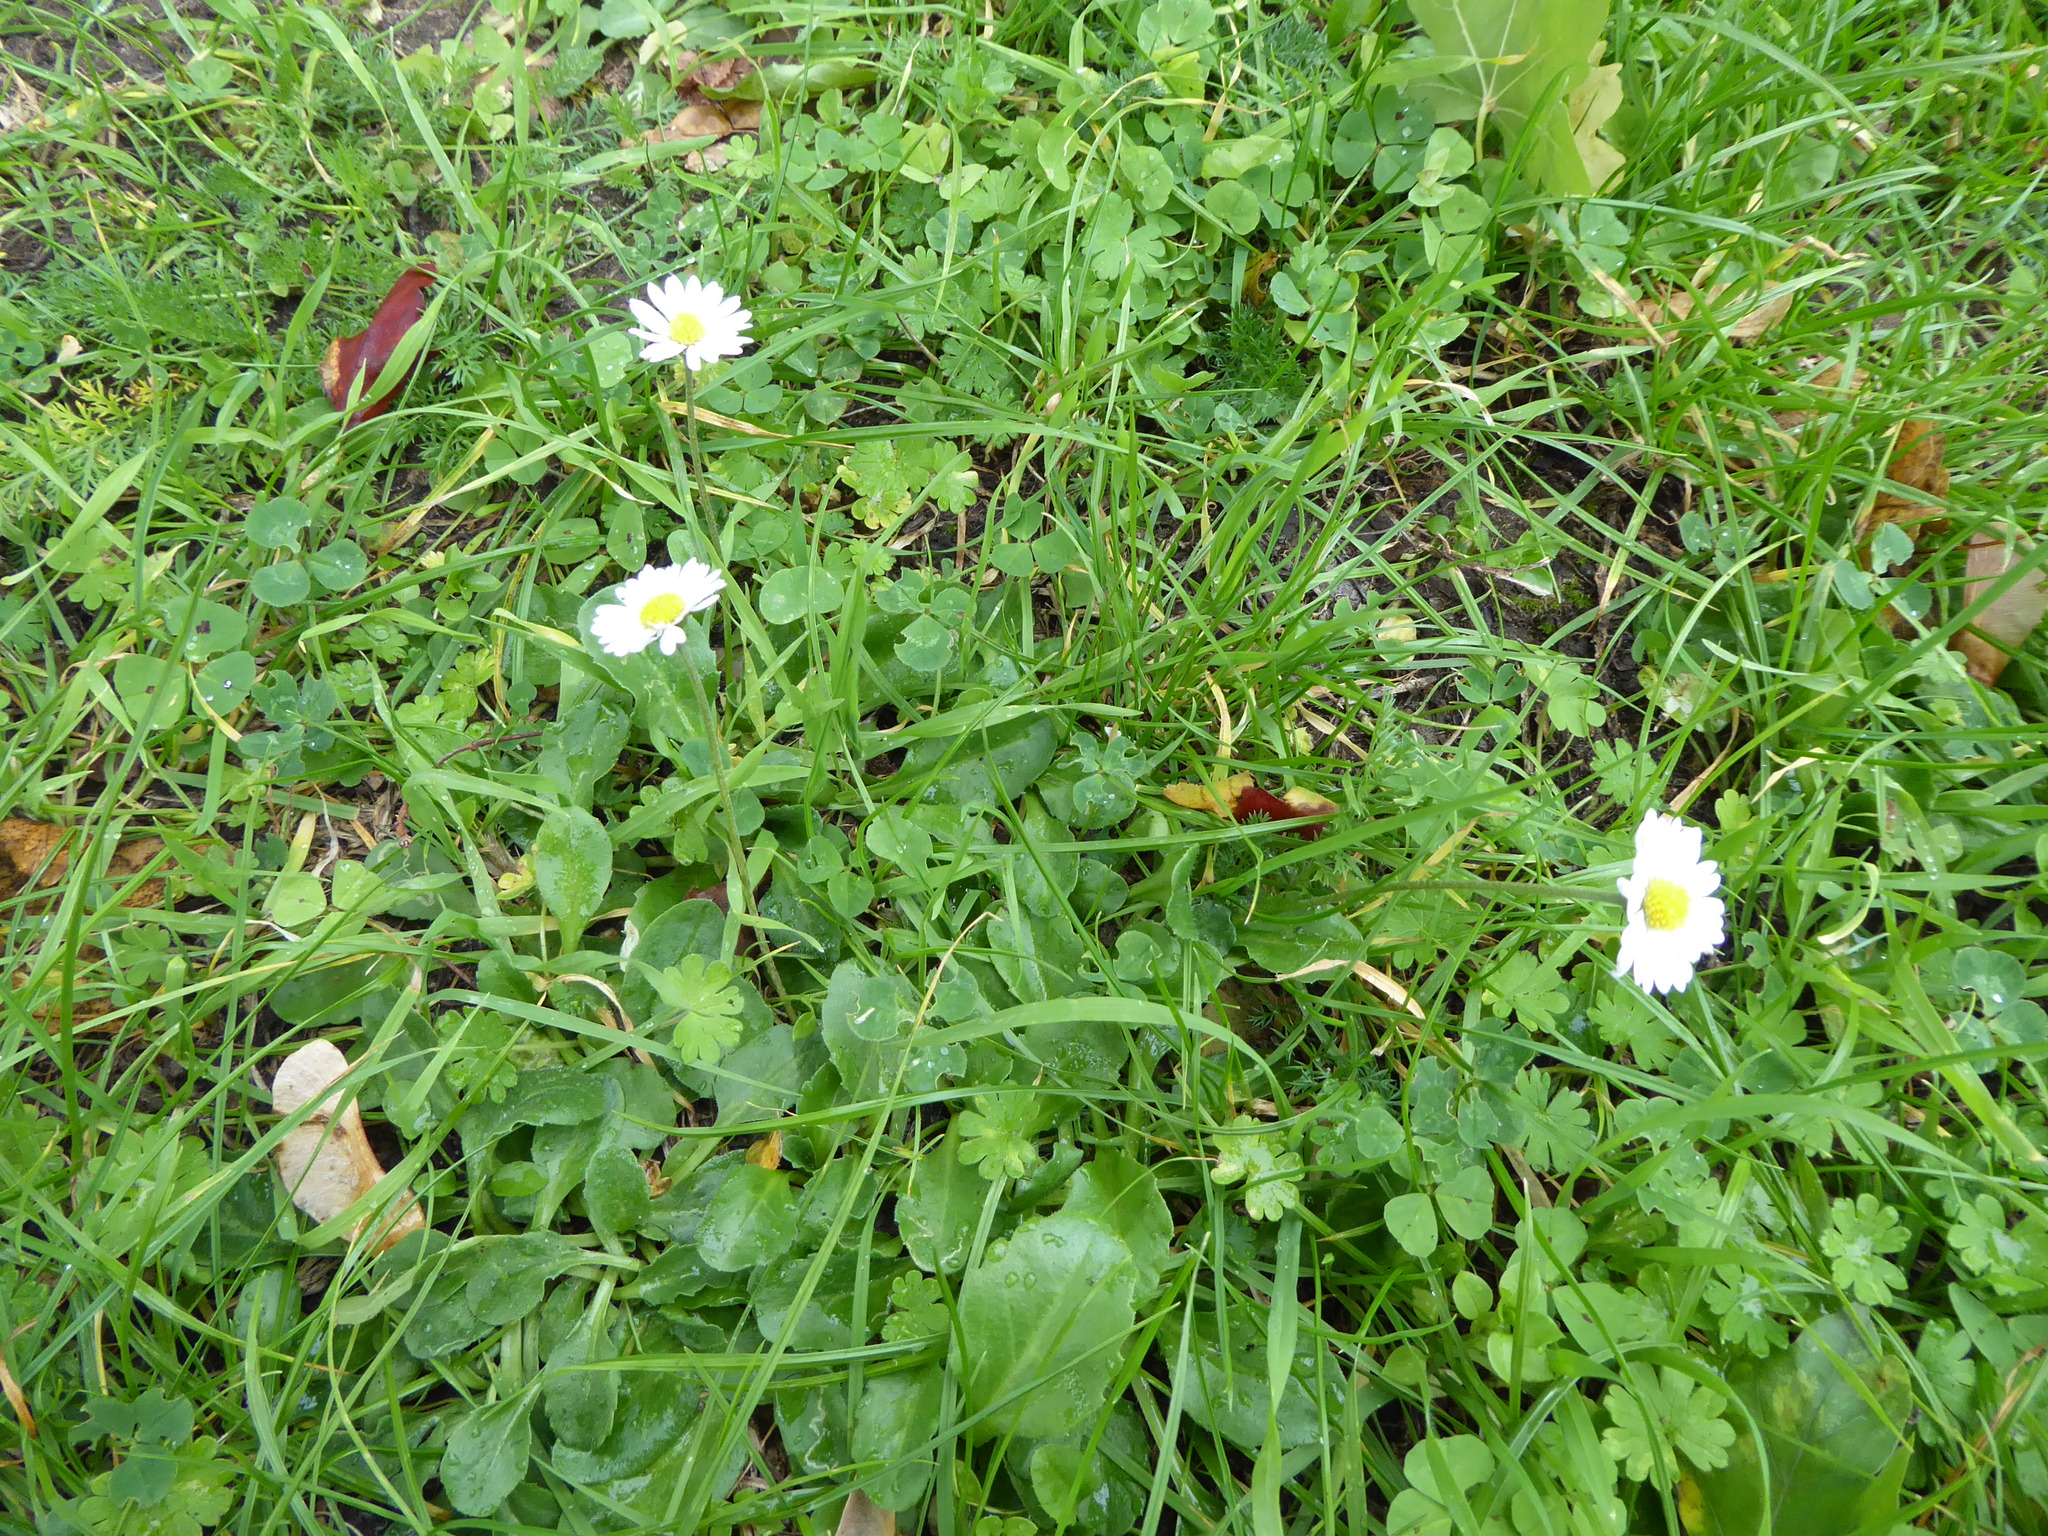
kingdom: Plantae
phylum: Tracheophyta
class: Magnoliopsida
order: Asterales
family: Asteraceae
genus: Bellis
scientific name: Bellis perennis
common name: Lawndaisy
